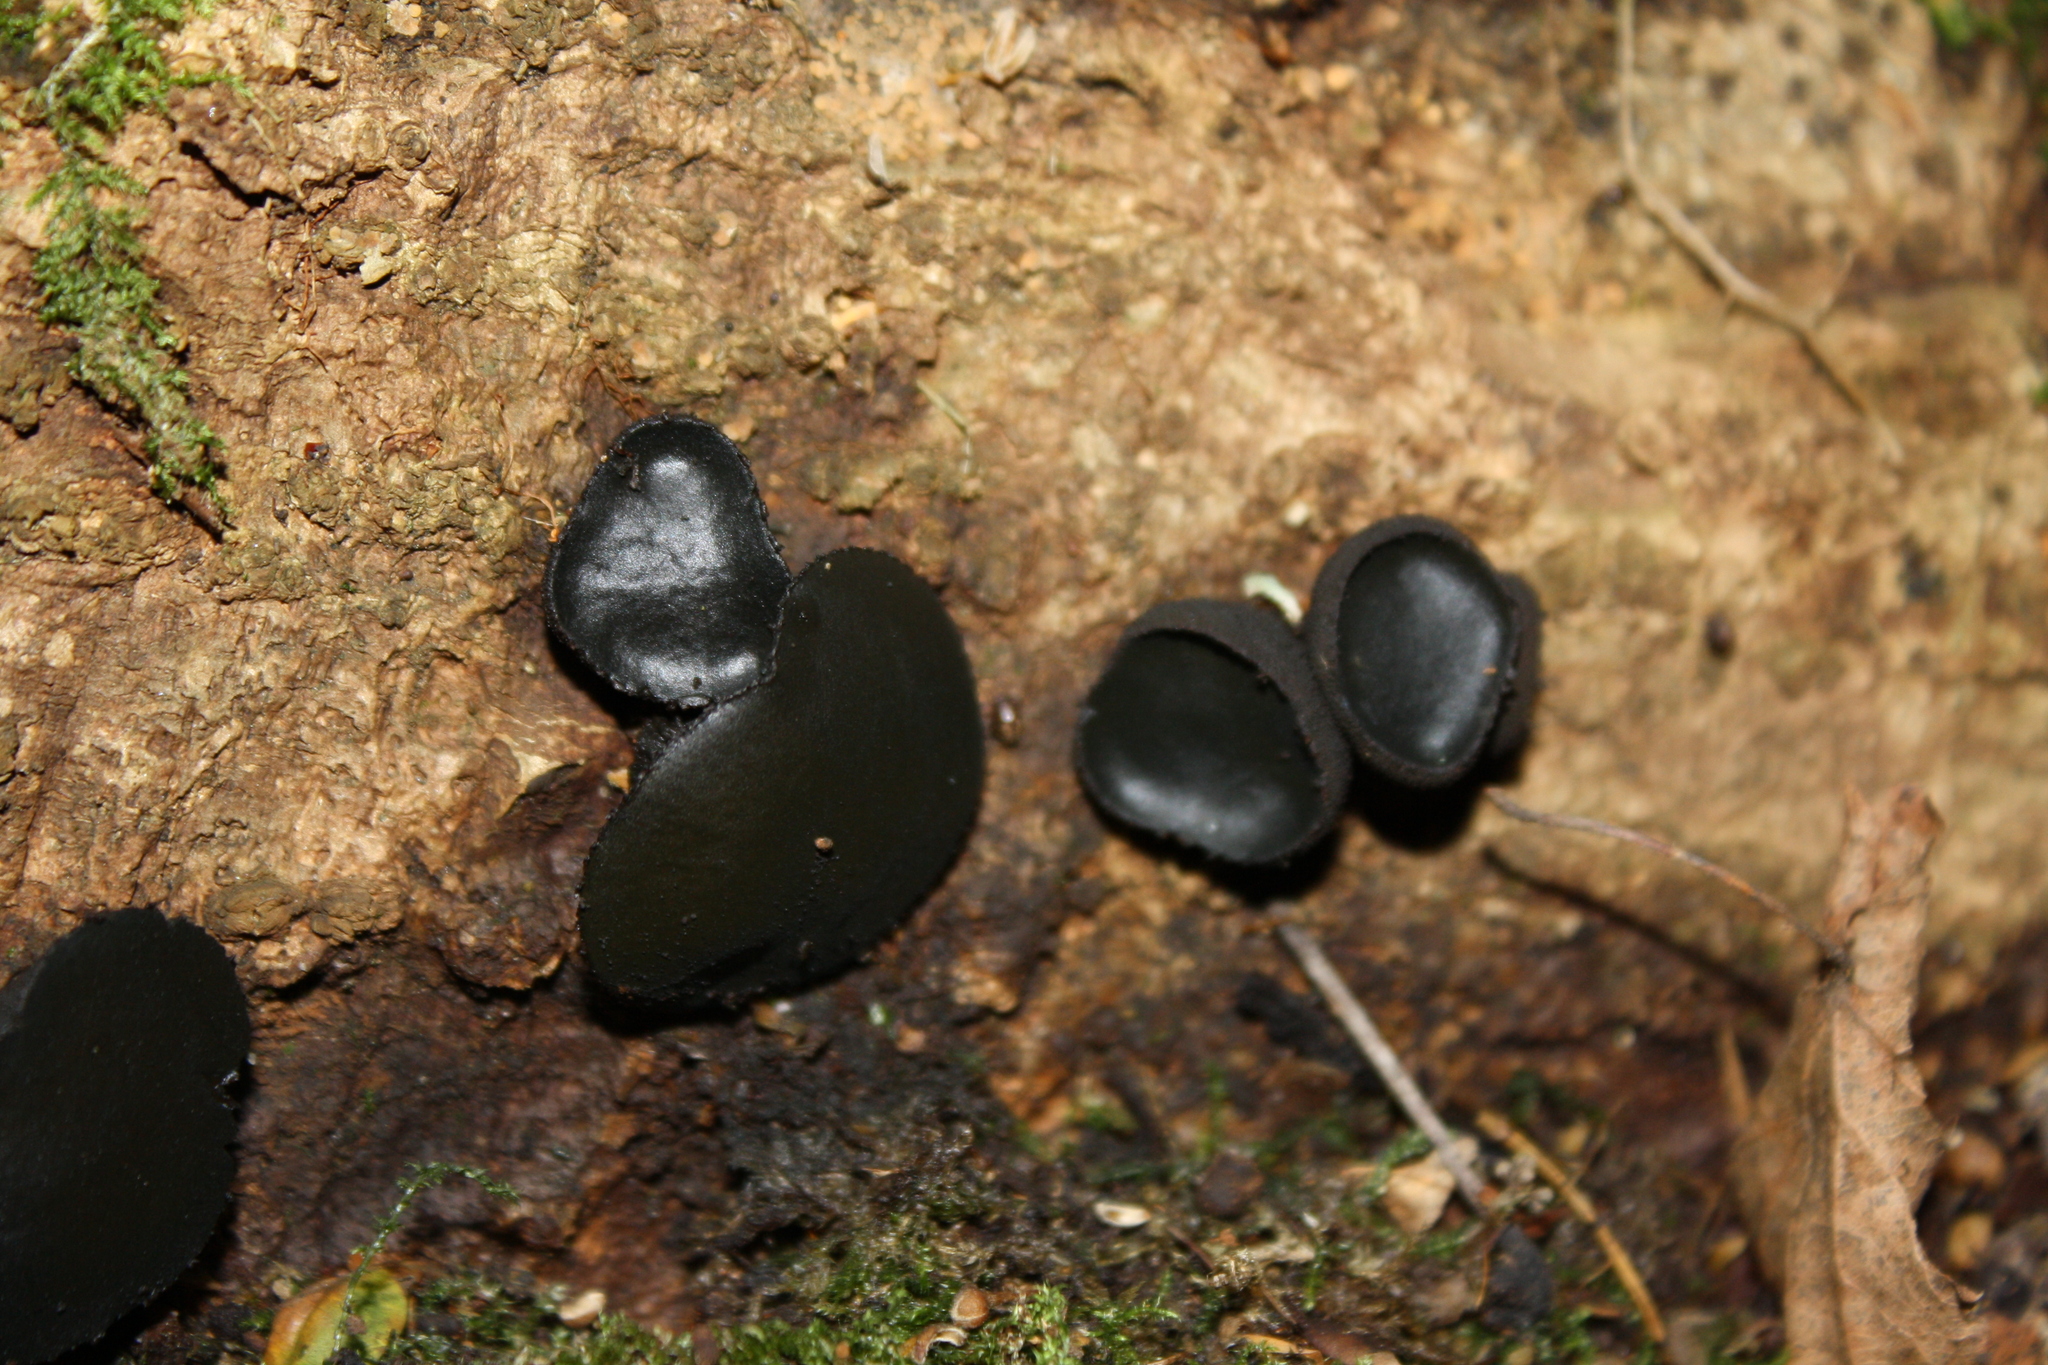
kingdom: Fungi
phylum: Ascomycota
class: Leotiomycetes
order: Phacidiales
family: Phacidiaceae
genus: Bulgaria
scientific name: Bulgaria inquinans
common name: Black bulgar
